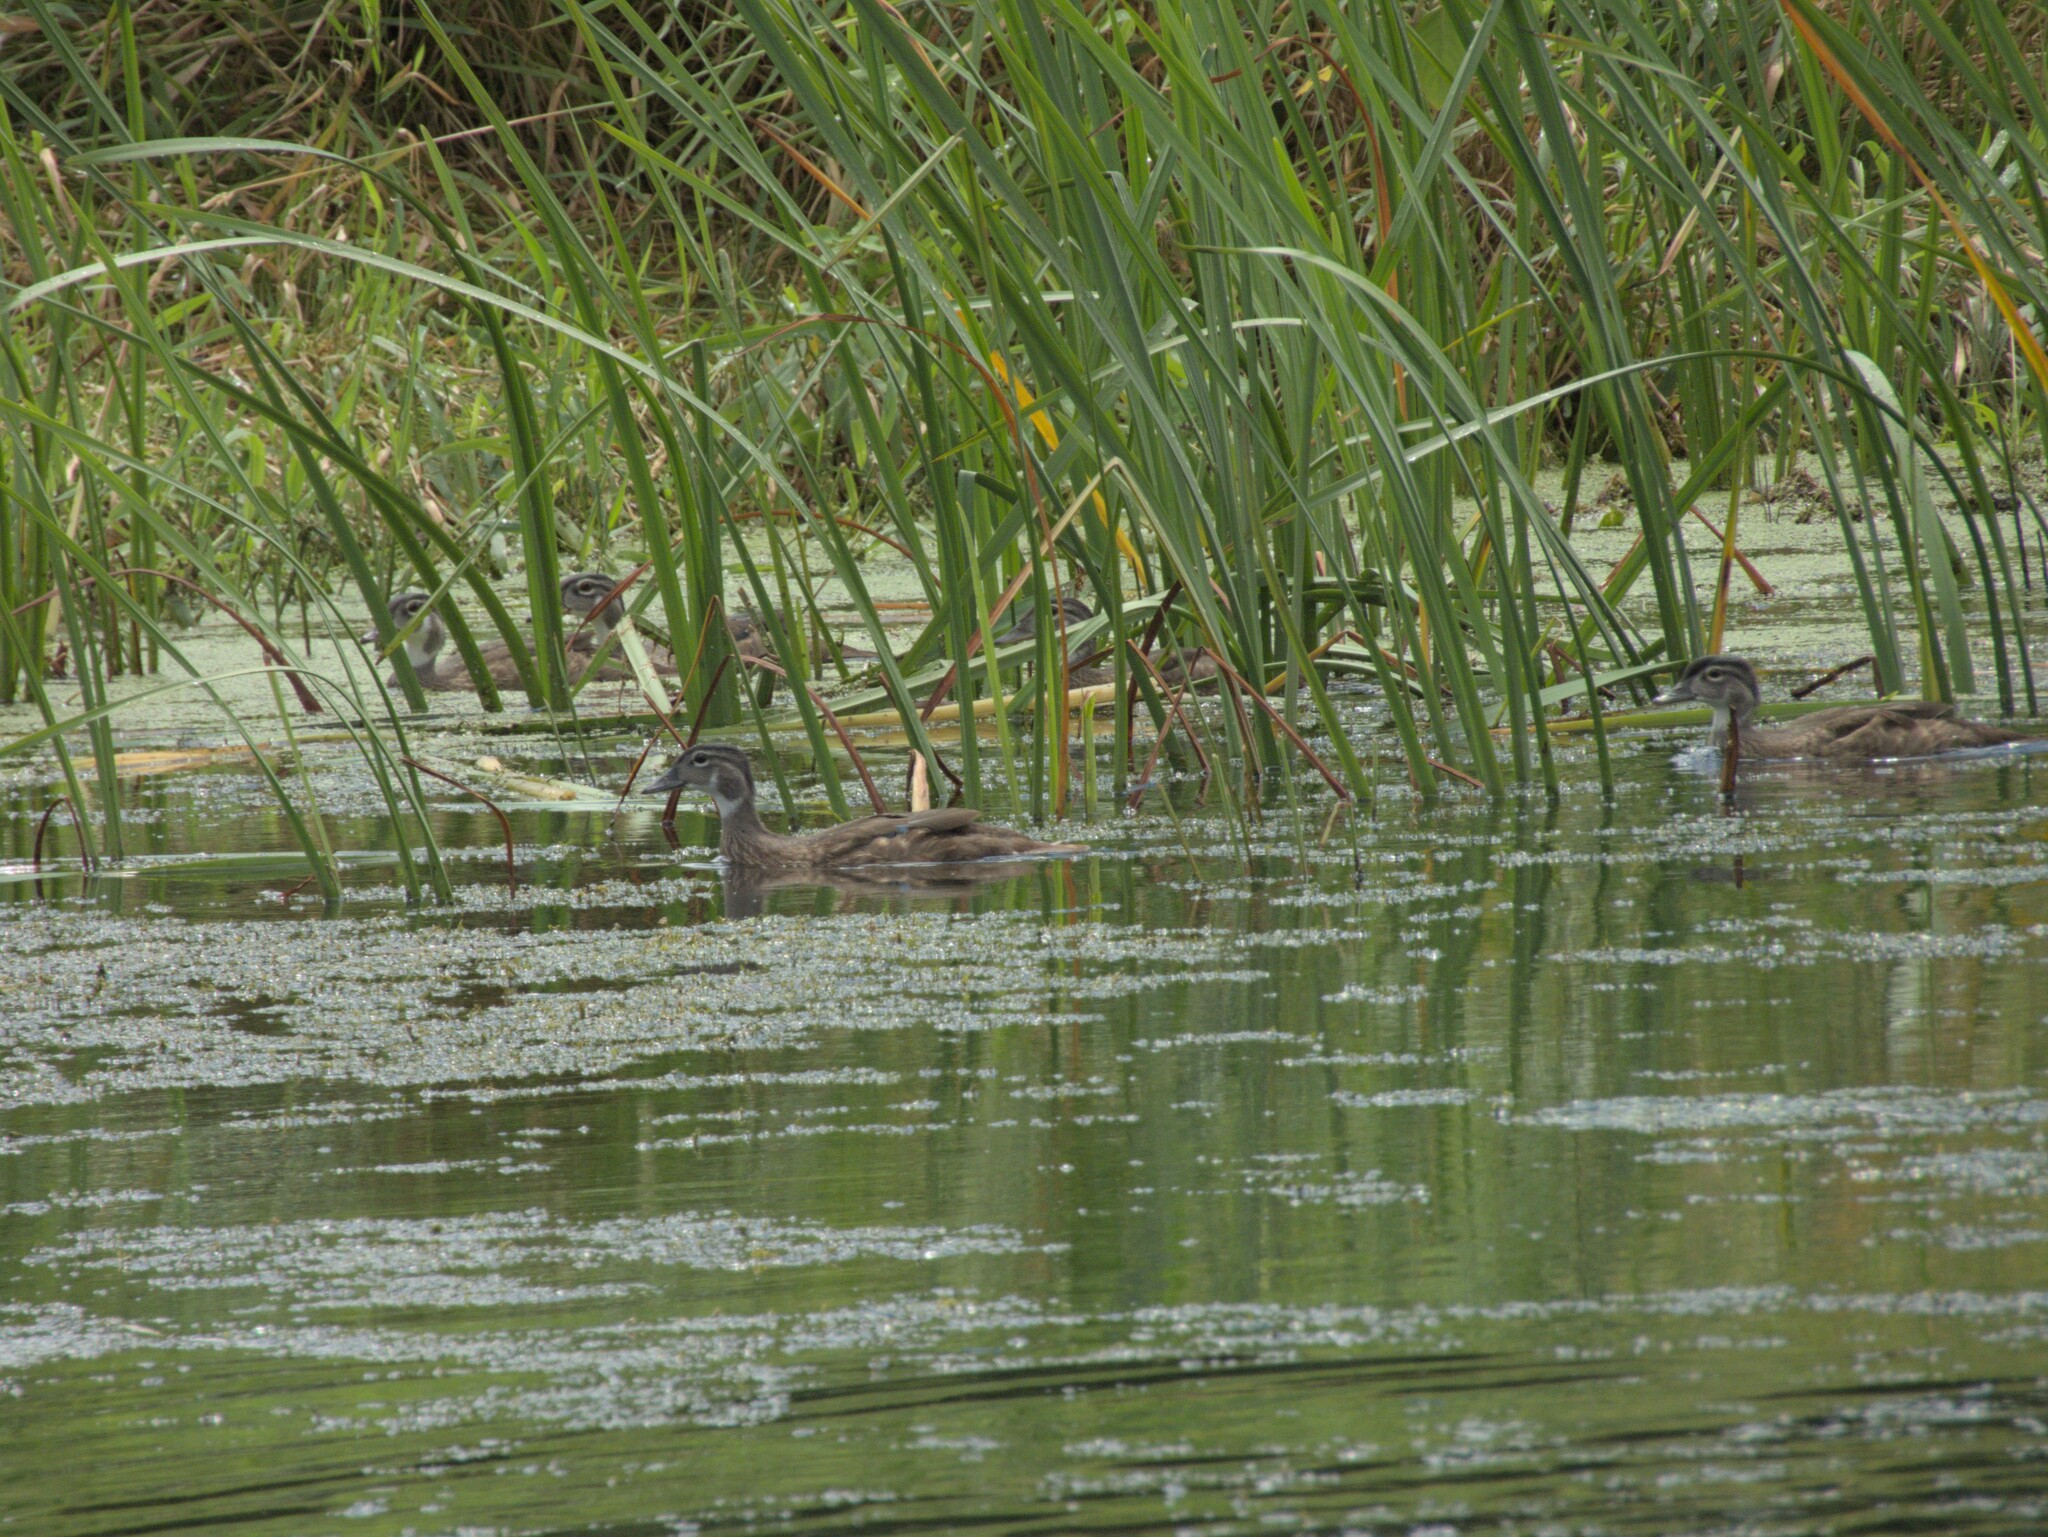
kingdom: Animalia
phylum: Chordata
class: Aves
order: Anseriformes
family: Anatidae
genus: Aix
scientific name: Aix sponsa
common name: Wood duck
